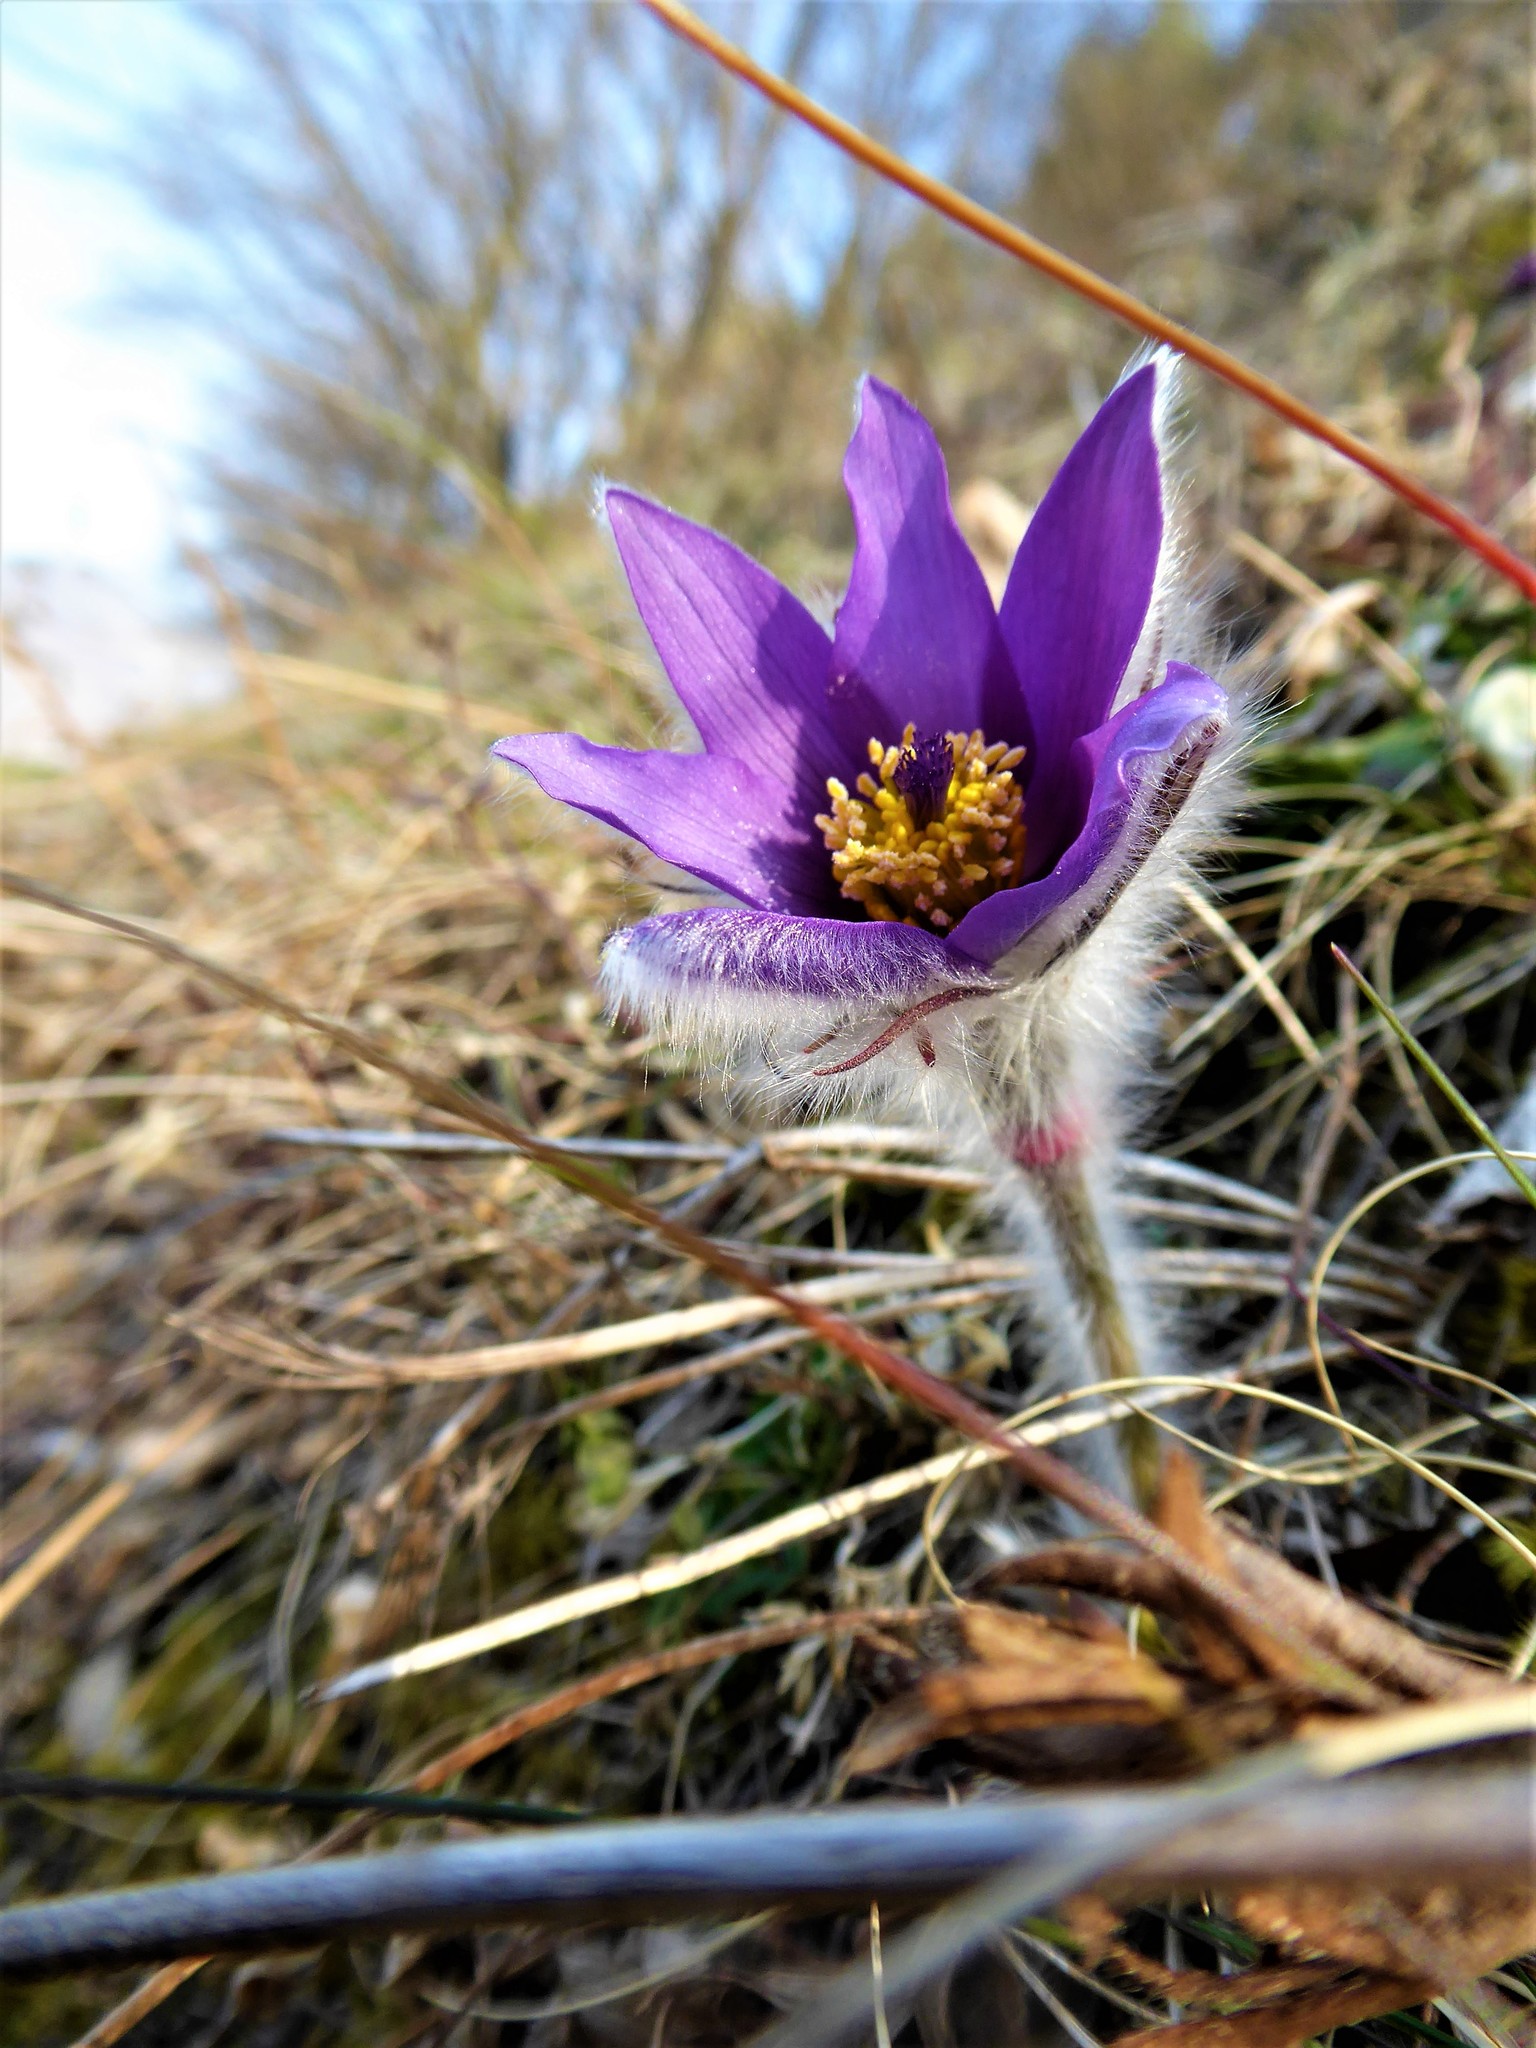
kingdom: Plantae
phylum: Tracheophyta
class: Magnoliopsida
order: Ranunculales
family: Ranunculaceae
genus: Pulsatilla
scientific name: Pulsatilla grandis
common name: Greater pasque flower
